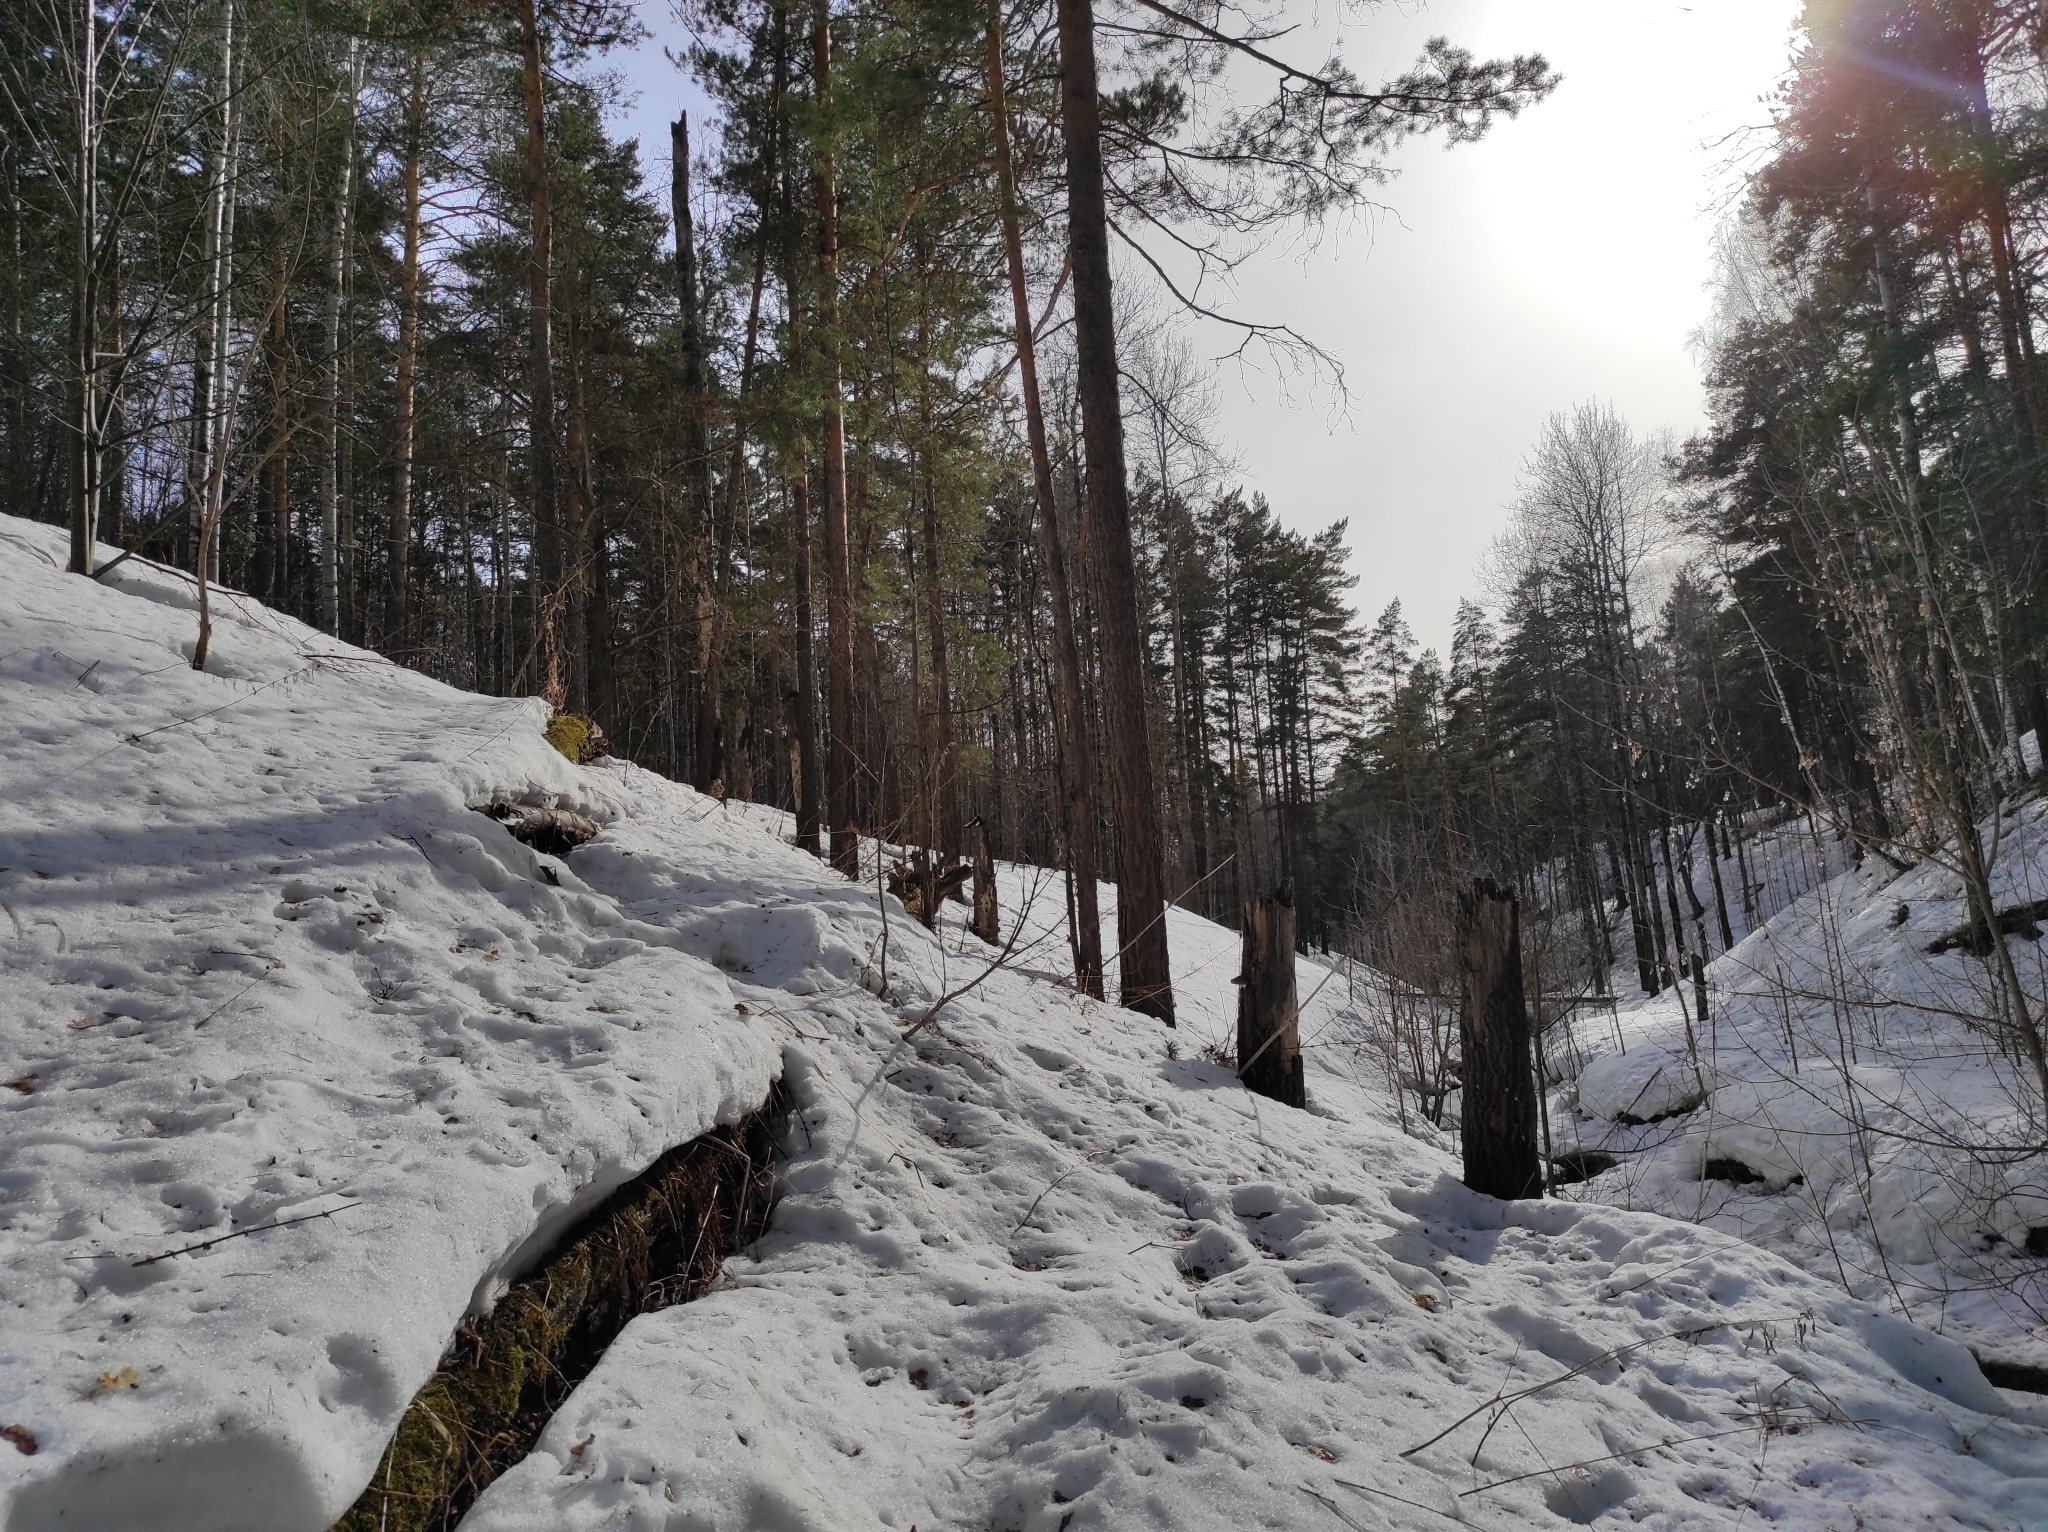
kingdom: Plantae
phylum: Tracheophyta
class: Pinopsida
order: Pinales
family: Pinaceae
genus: Pinus
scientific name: Pinus sylvestris
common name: Scots pine
